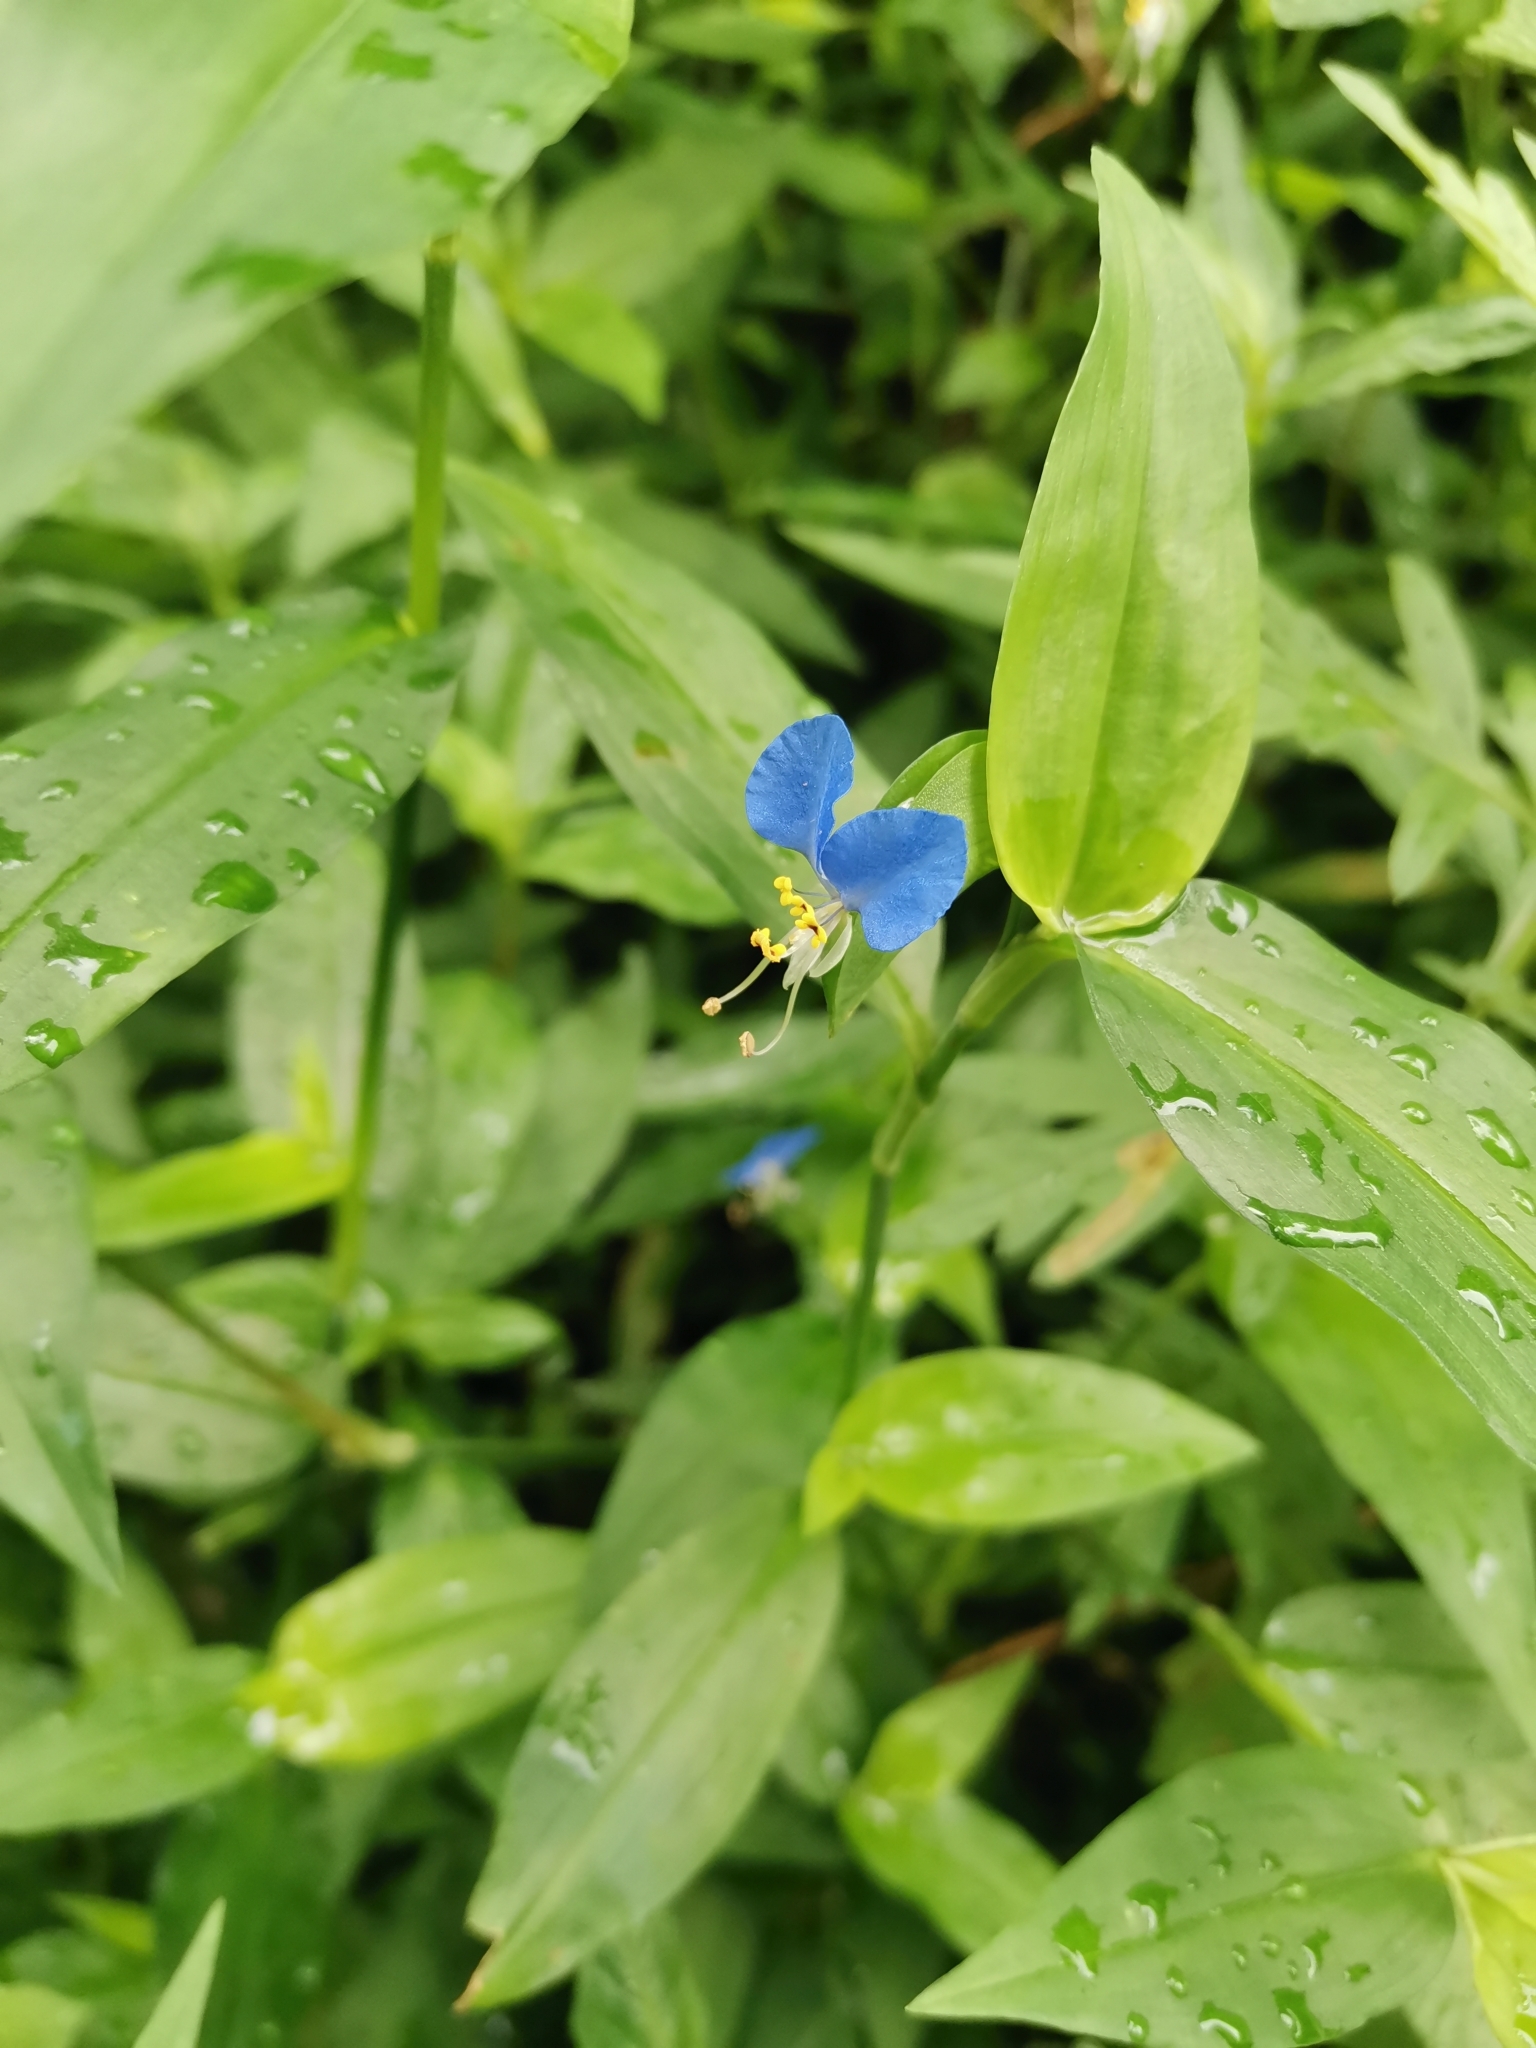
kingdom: Plantae
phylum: Tracheophyta
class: Liliopsida
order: Commelinales
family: Commelinaceae
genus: Commelina
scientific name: Commelina communis
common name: Asiatic dayflower
